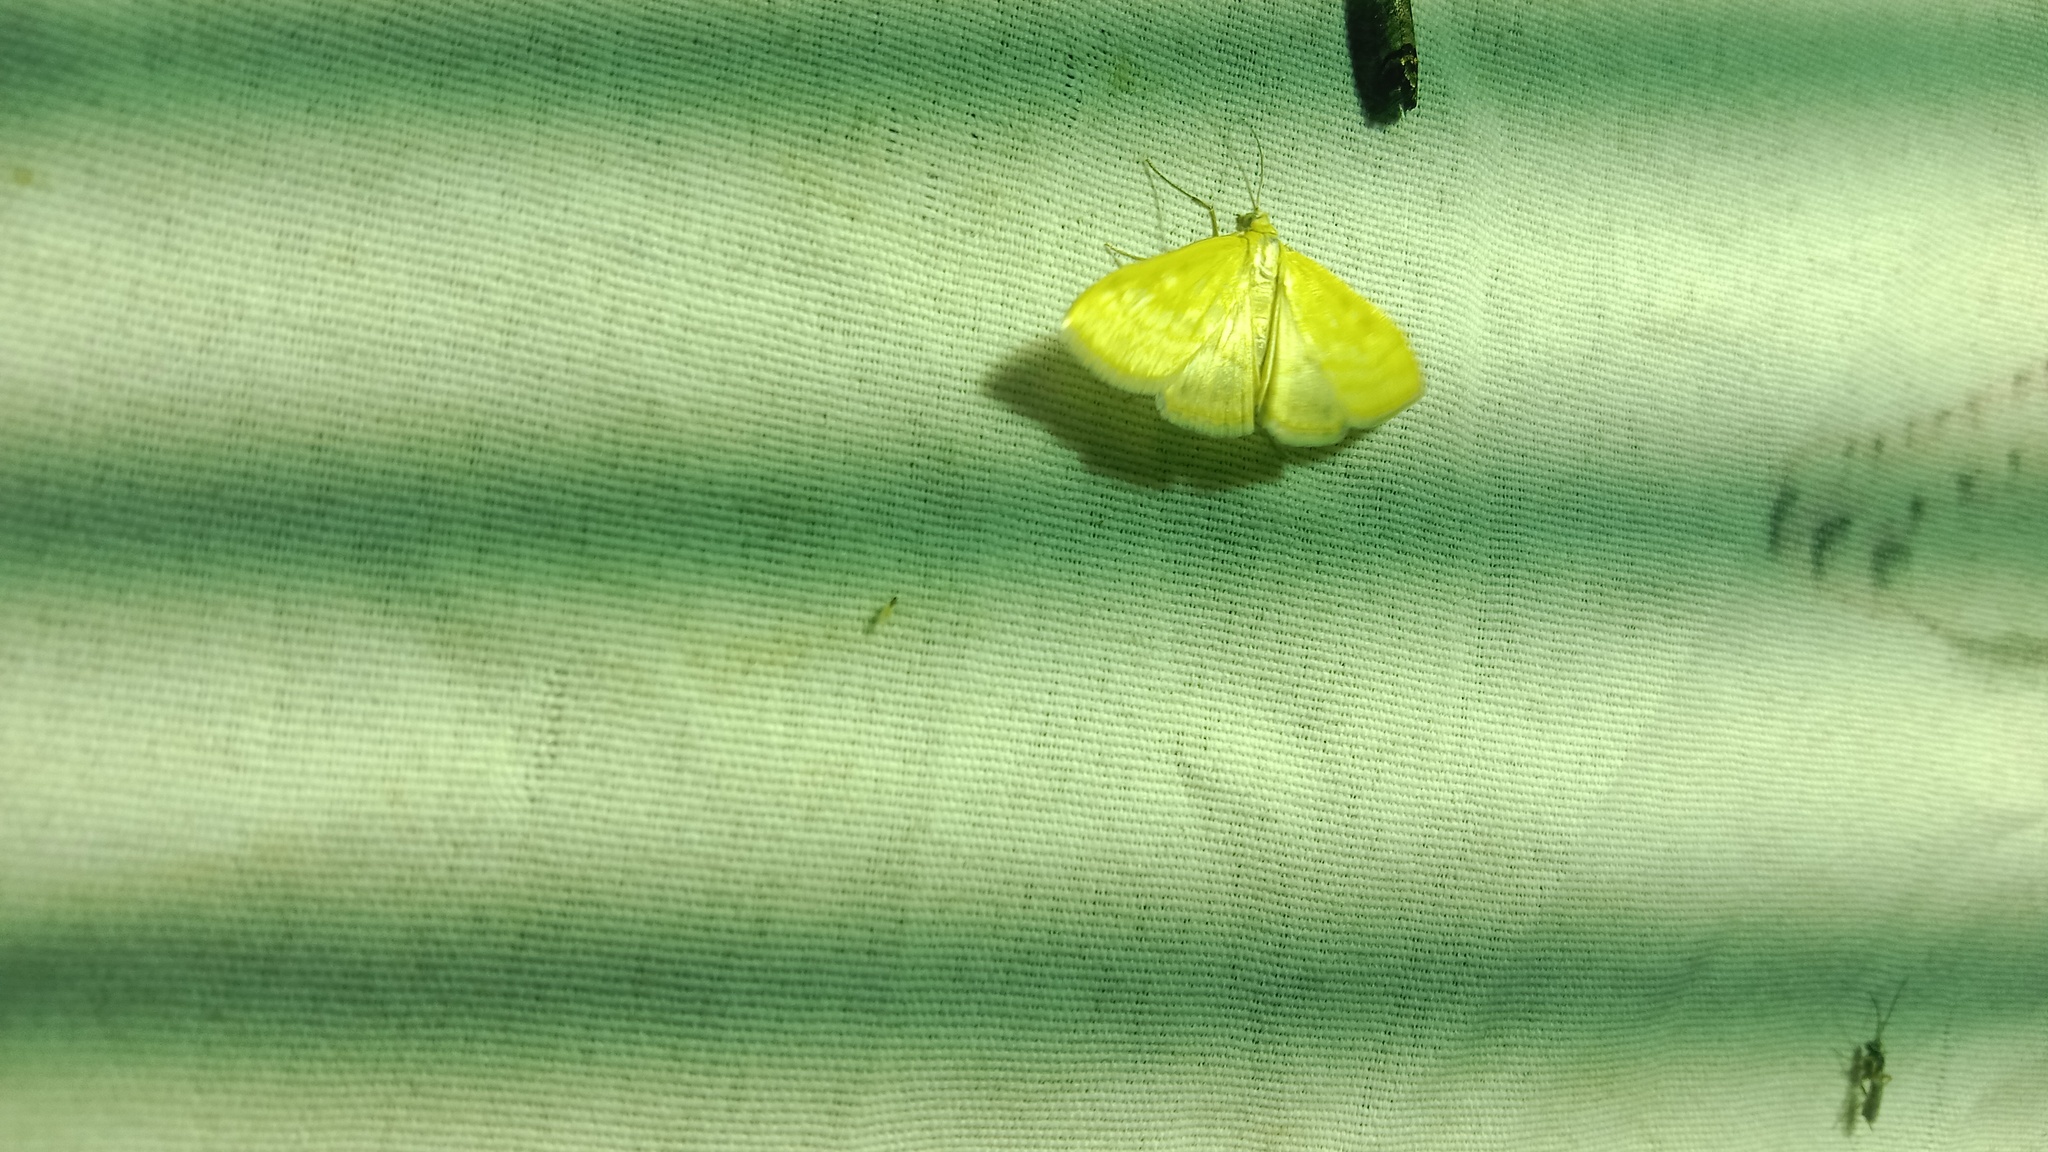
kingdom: Animalia
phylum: Arthropoda
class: Insecta
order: Lepidoptera
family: Crambidae
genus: Sitochroa
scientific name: Sitochroa verticalis
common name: Lesser pearl
